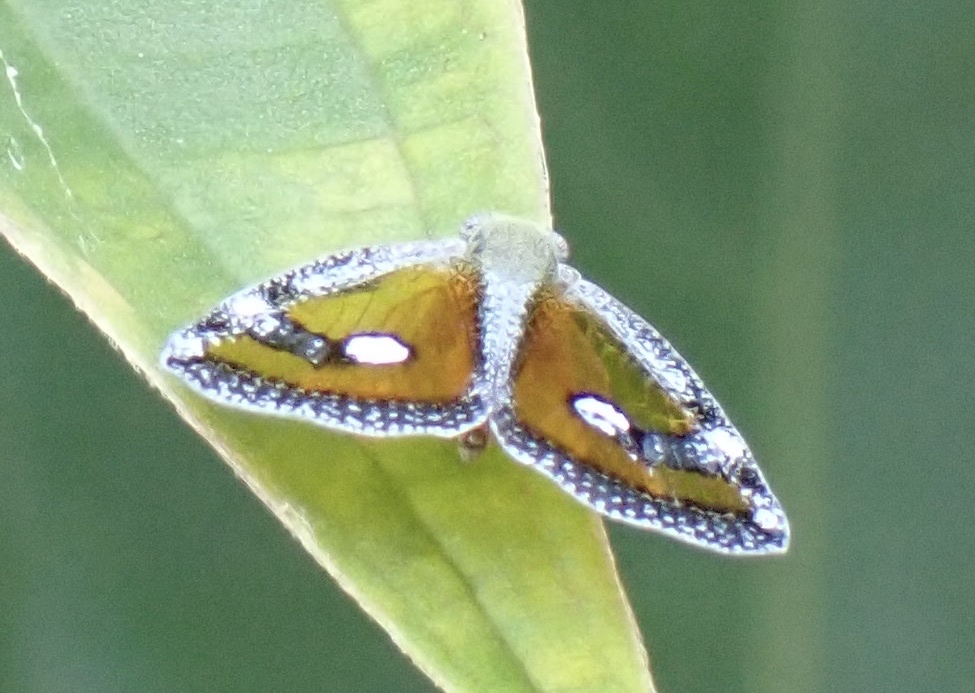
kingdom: Animalia
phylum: Arthropoda
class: Insecta
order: Hemiptera
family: Ricaniidae
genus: Euricania
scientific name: Euricania splendida
